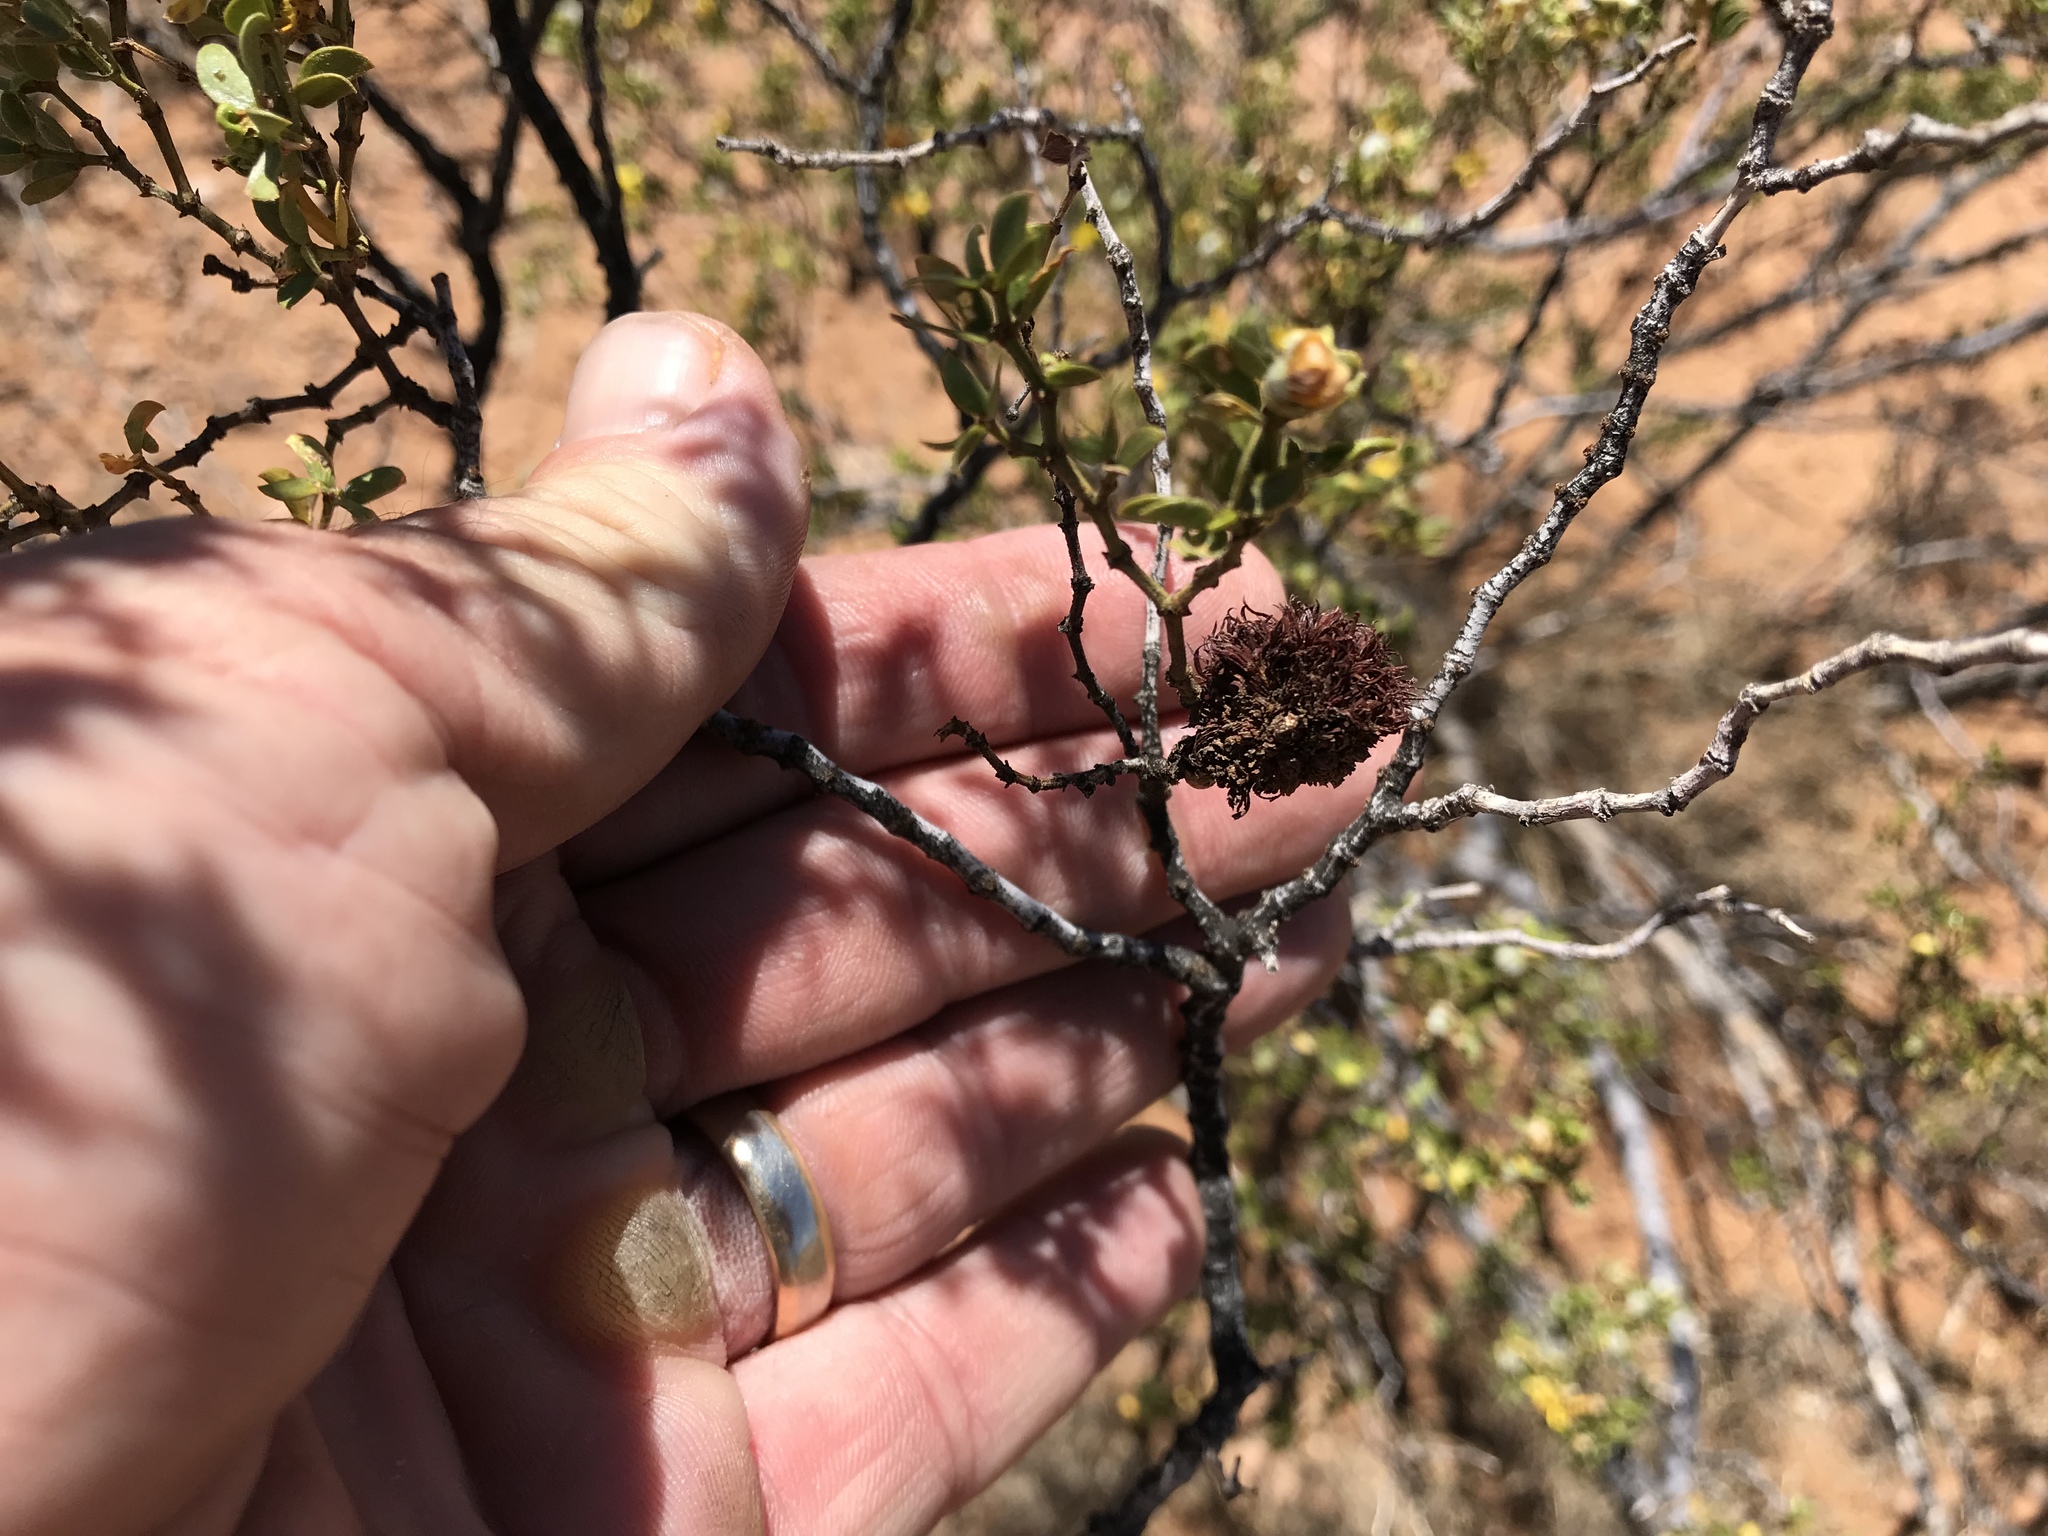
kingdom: Animalia
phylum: Arthropoda
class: Insecta
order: Diptera
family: Cecidomyiidae
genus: Asphondylia
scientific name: Asphondylia auripila
